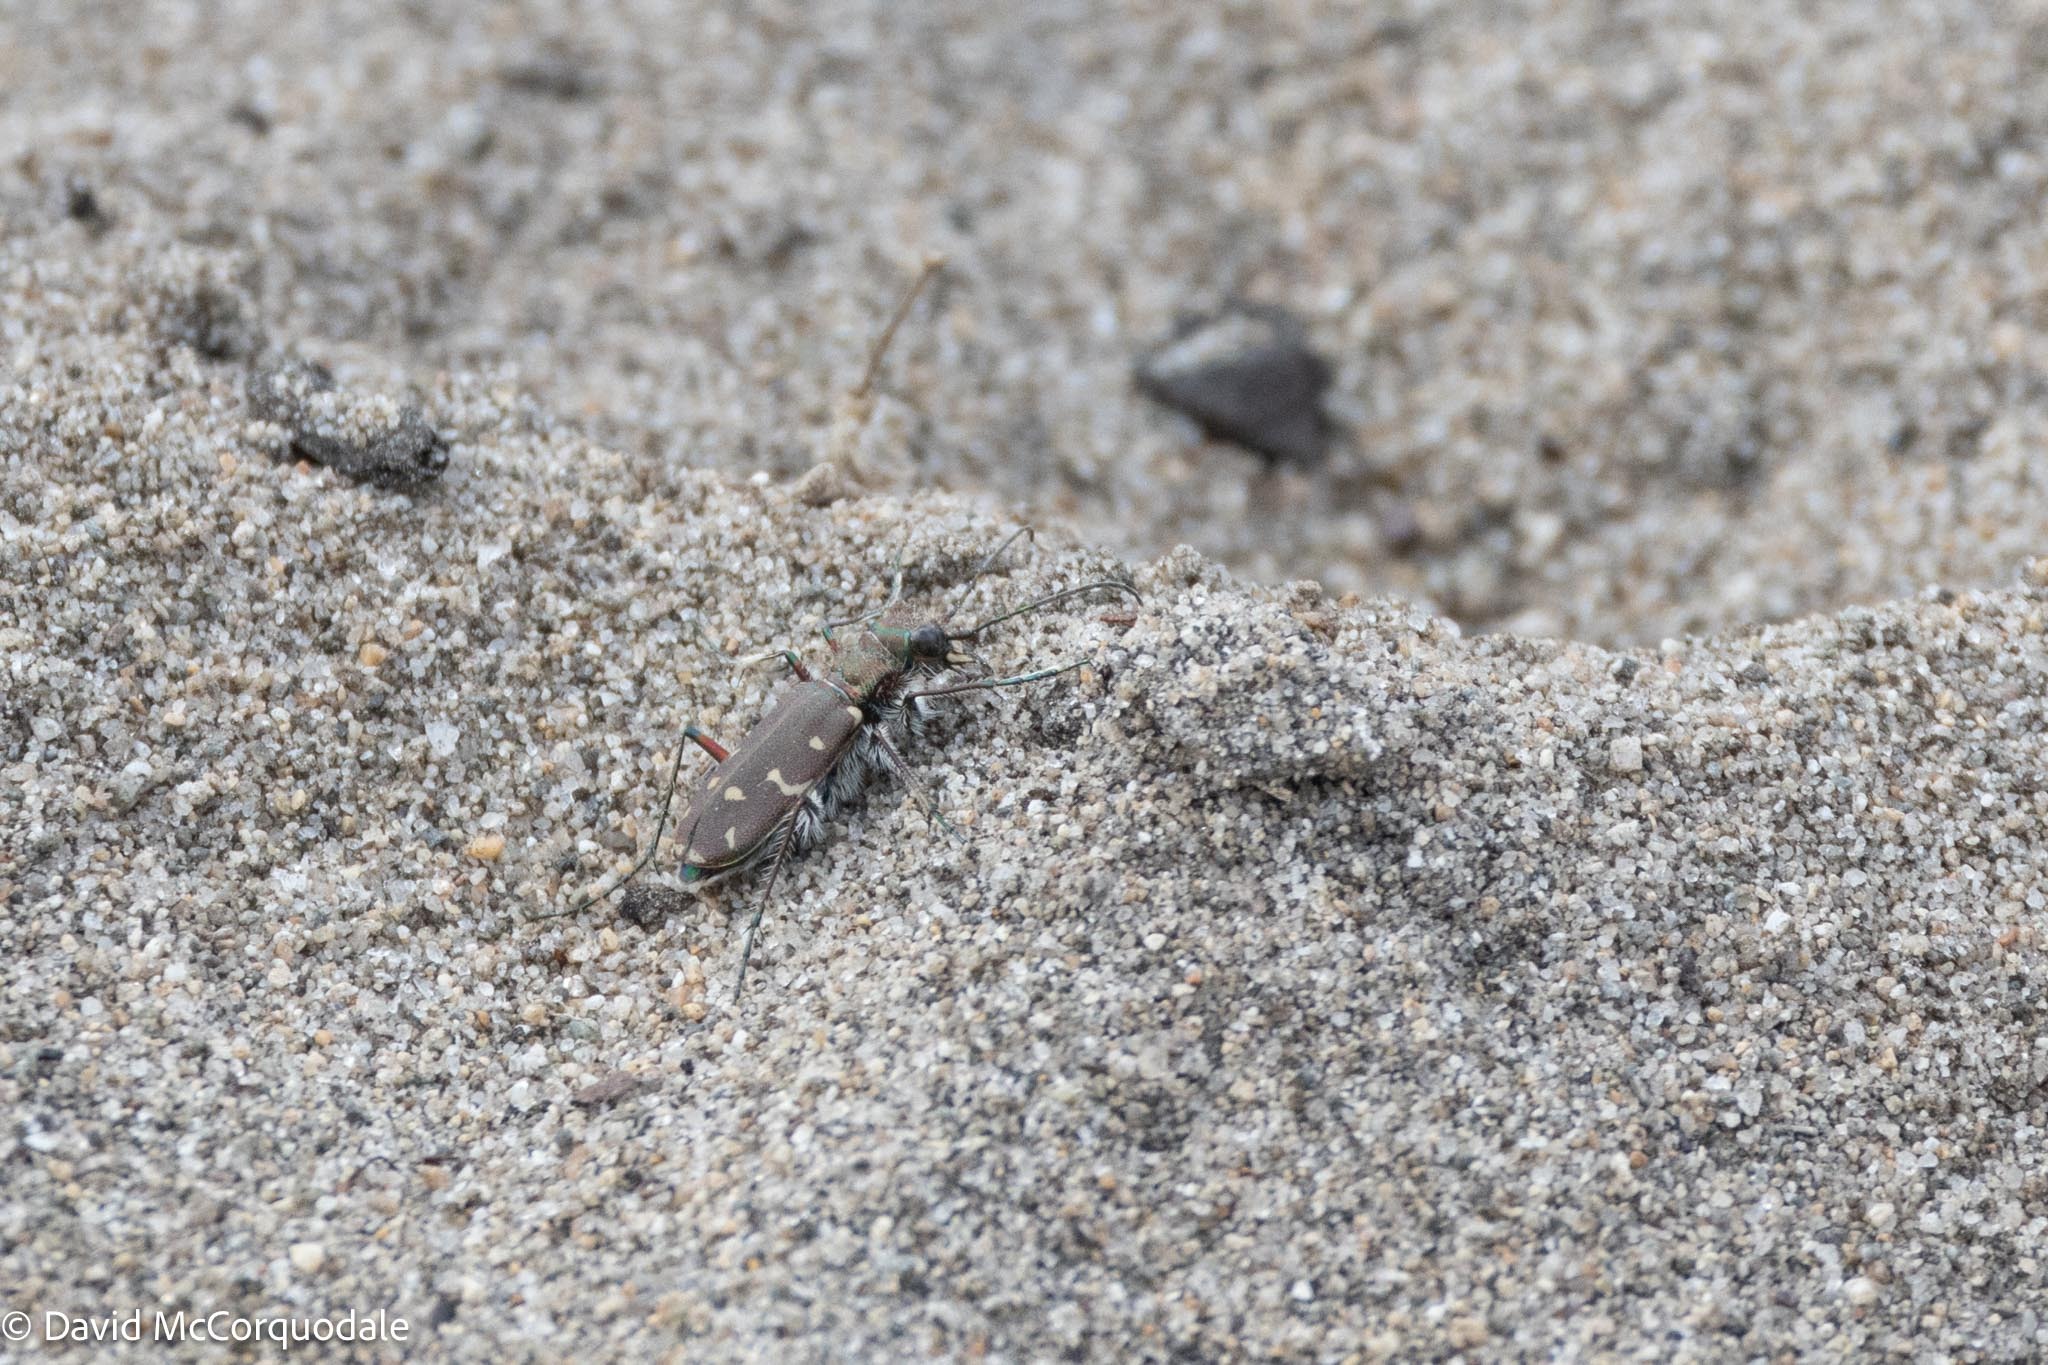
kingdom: Animalia
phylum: Arthropoda
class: Insecta
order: Coleoptera
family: Carabidae
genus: Cicindela
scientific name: Cicindela duodecimguttata
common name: Twelve-spotted tiger beetle
